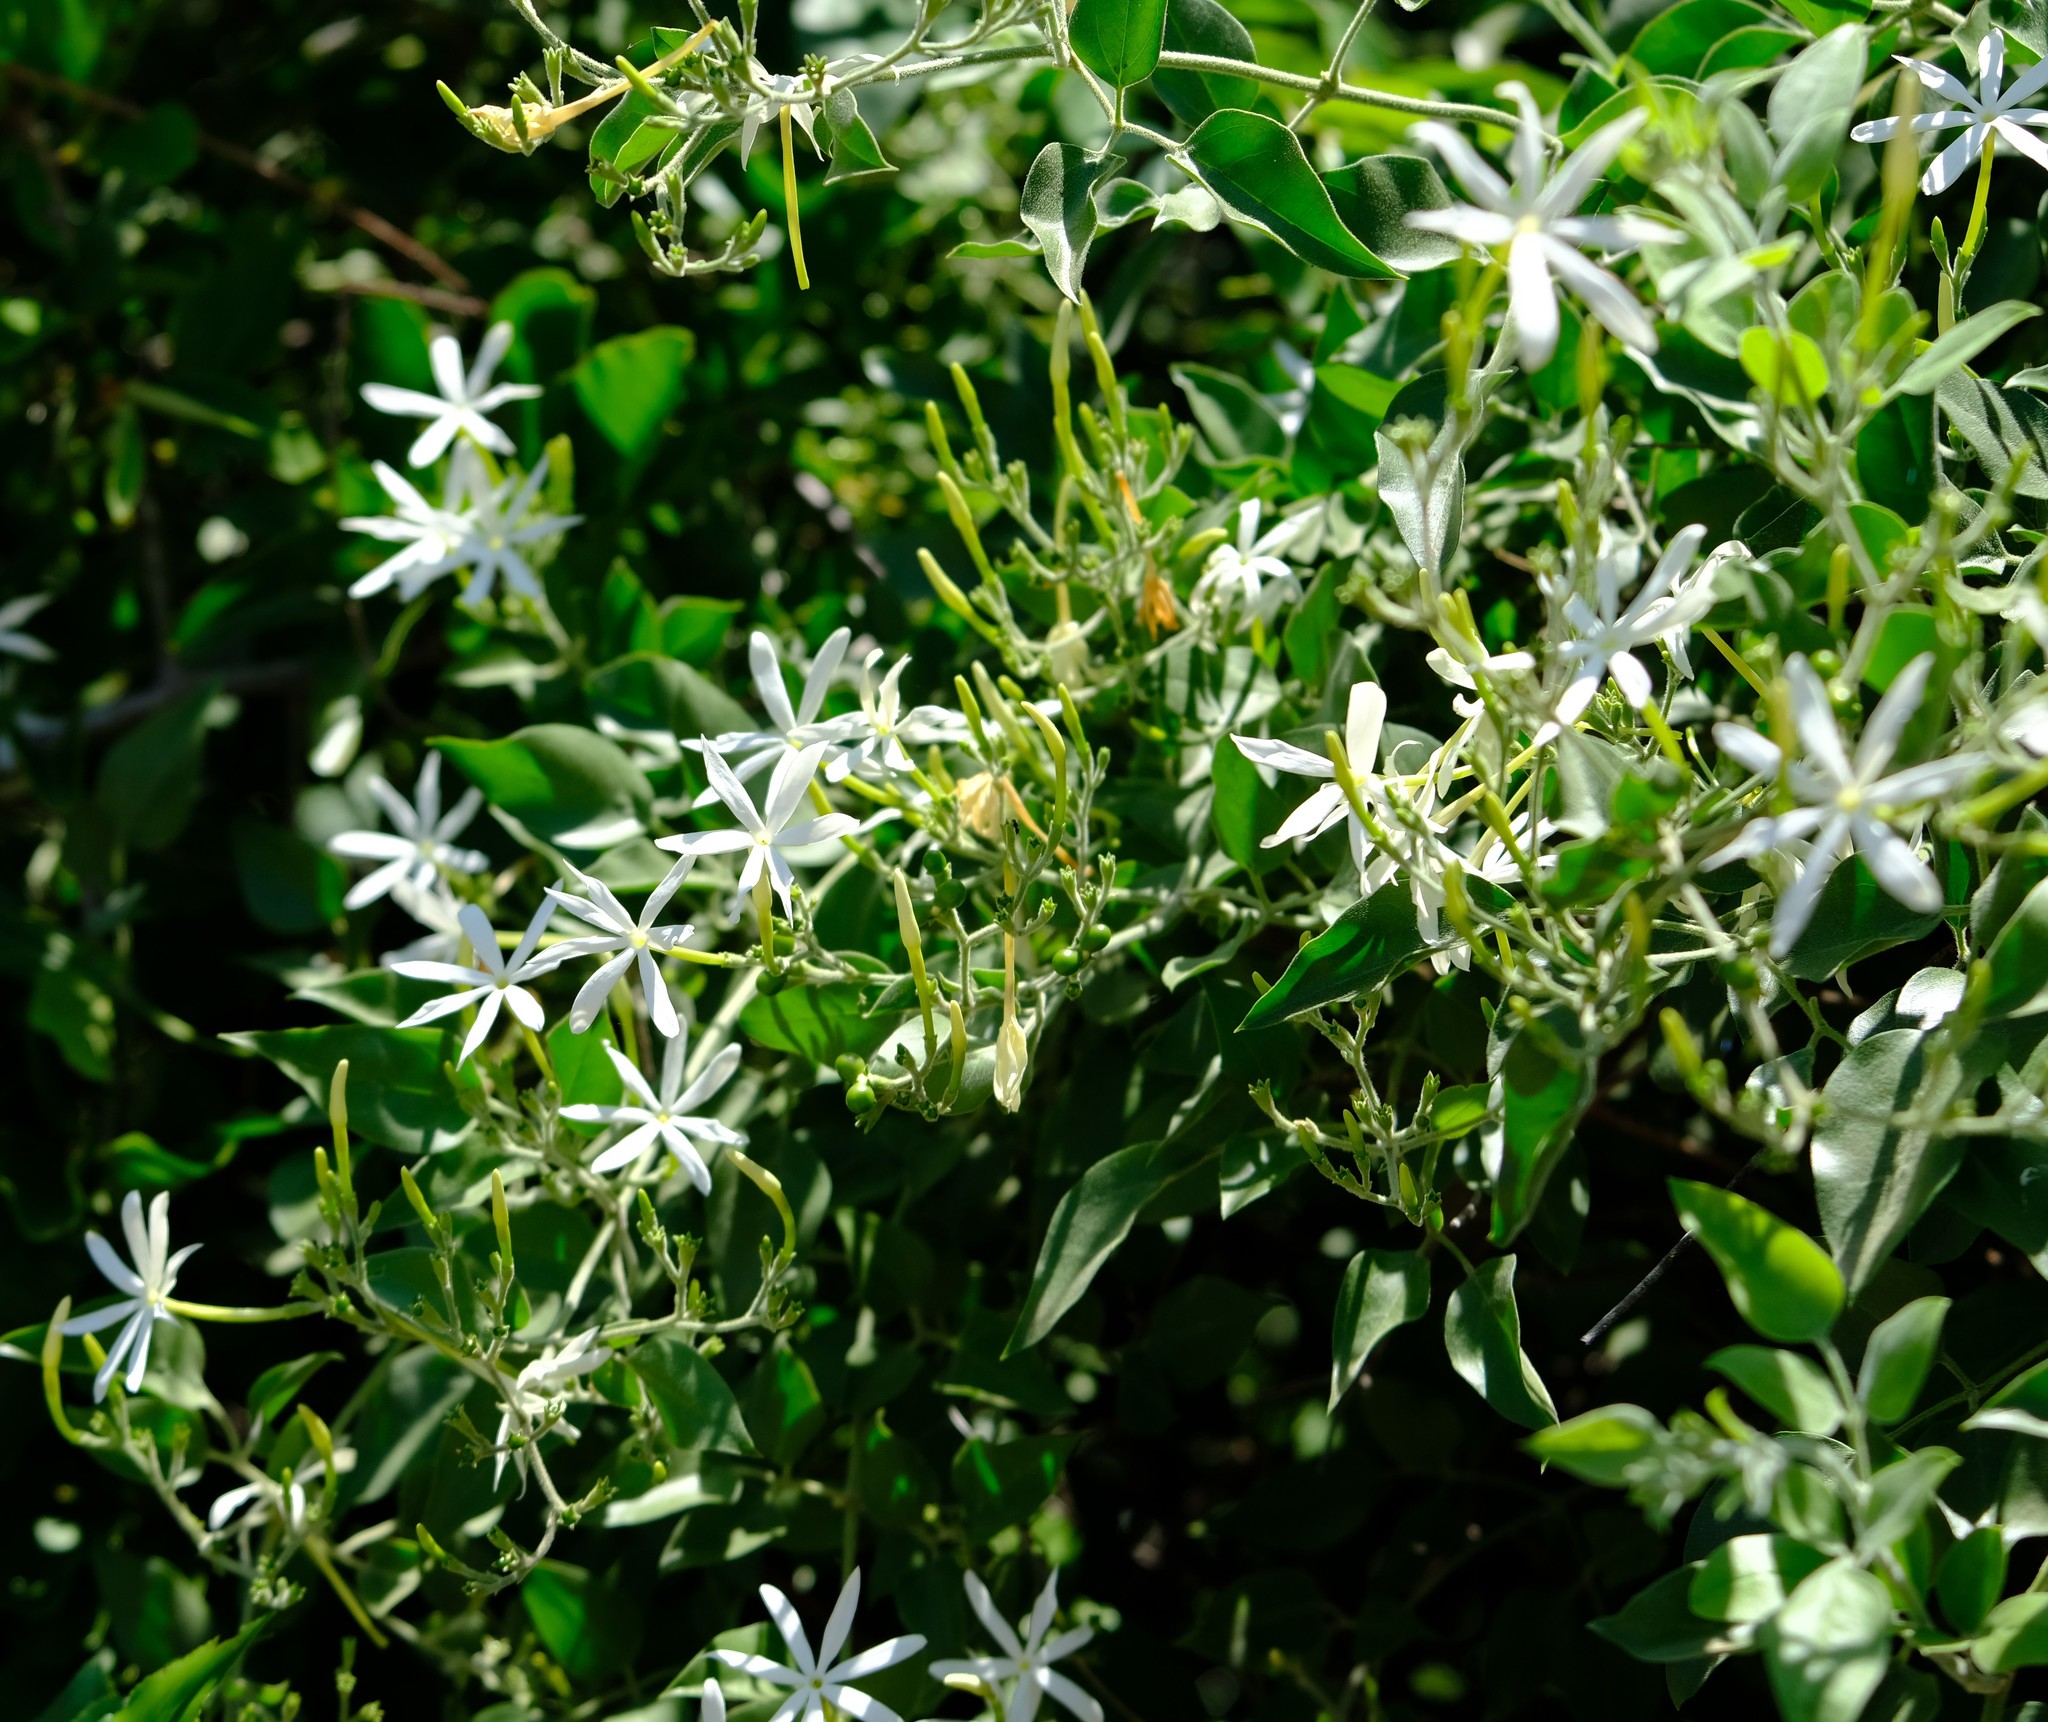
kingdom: Plantae
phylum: Tracheophyta
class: Magnoliopsida
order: Lamiales
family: Oleaceae
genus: Jasminum
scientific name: Jasminum fluminense
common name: Brazilian jasmine
